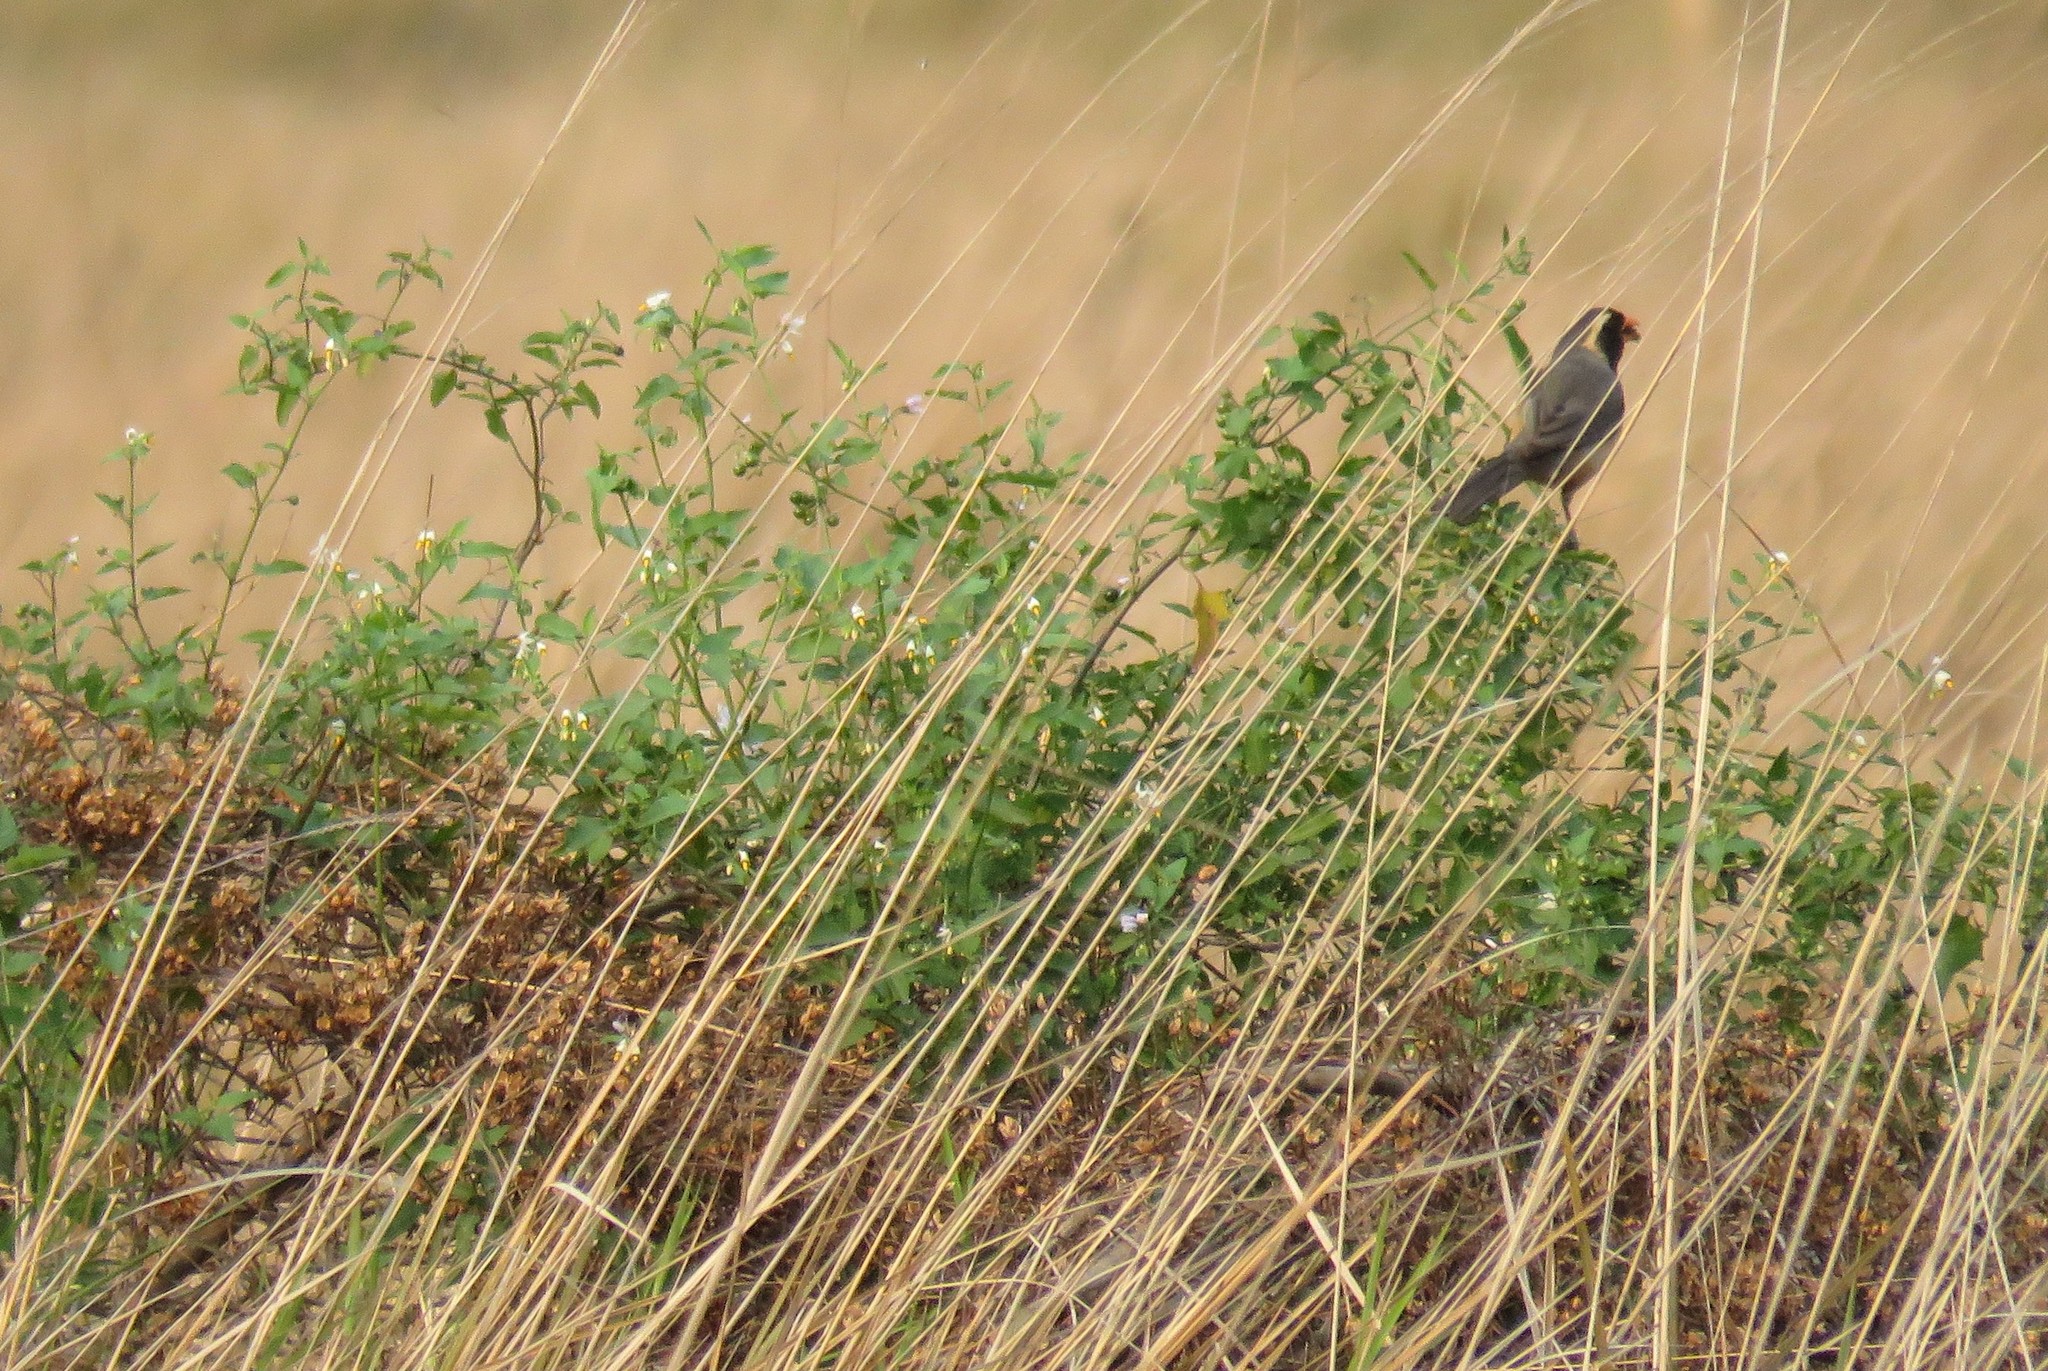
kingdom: Animalia
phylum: Chordata
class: Aves
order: Passeriformes
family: Thraupidae
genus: Saltator
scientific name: Saltator aurantiirostris
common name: Golden-billed saltator
